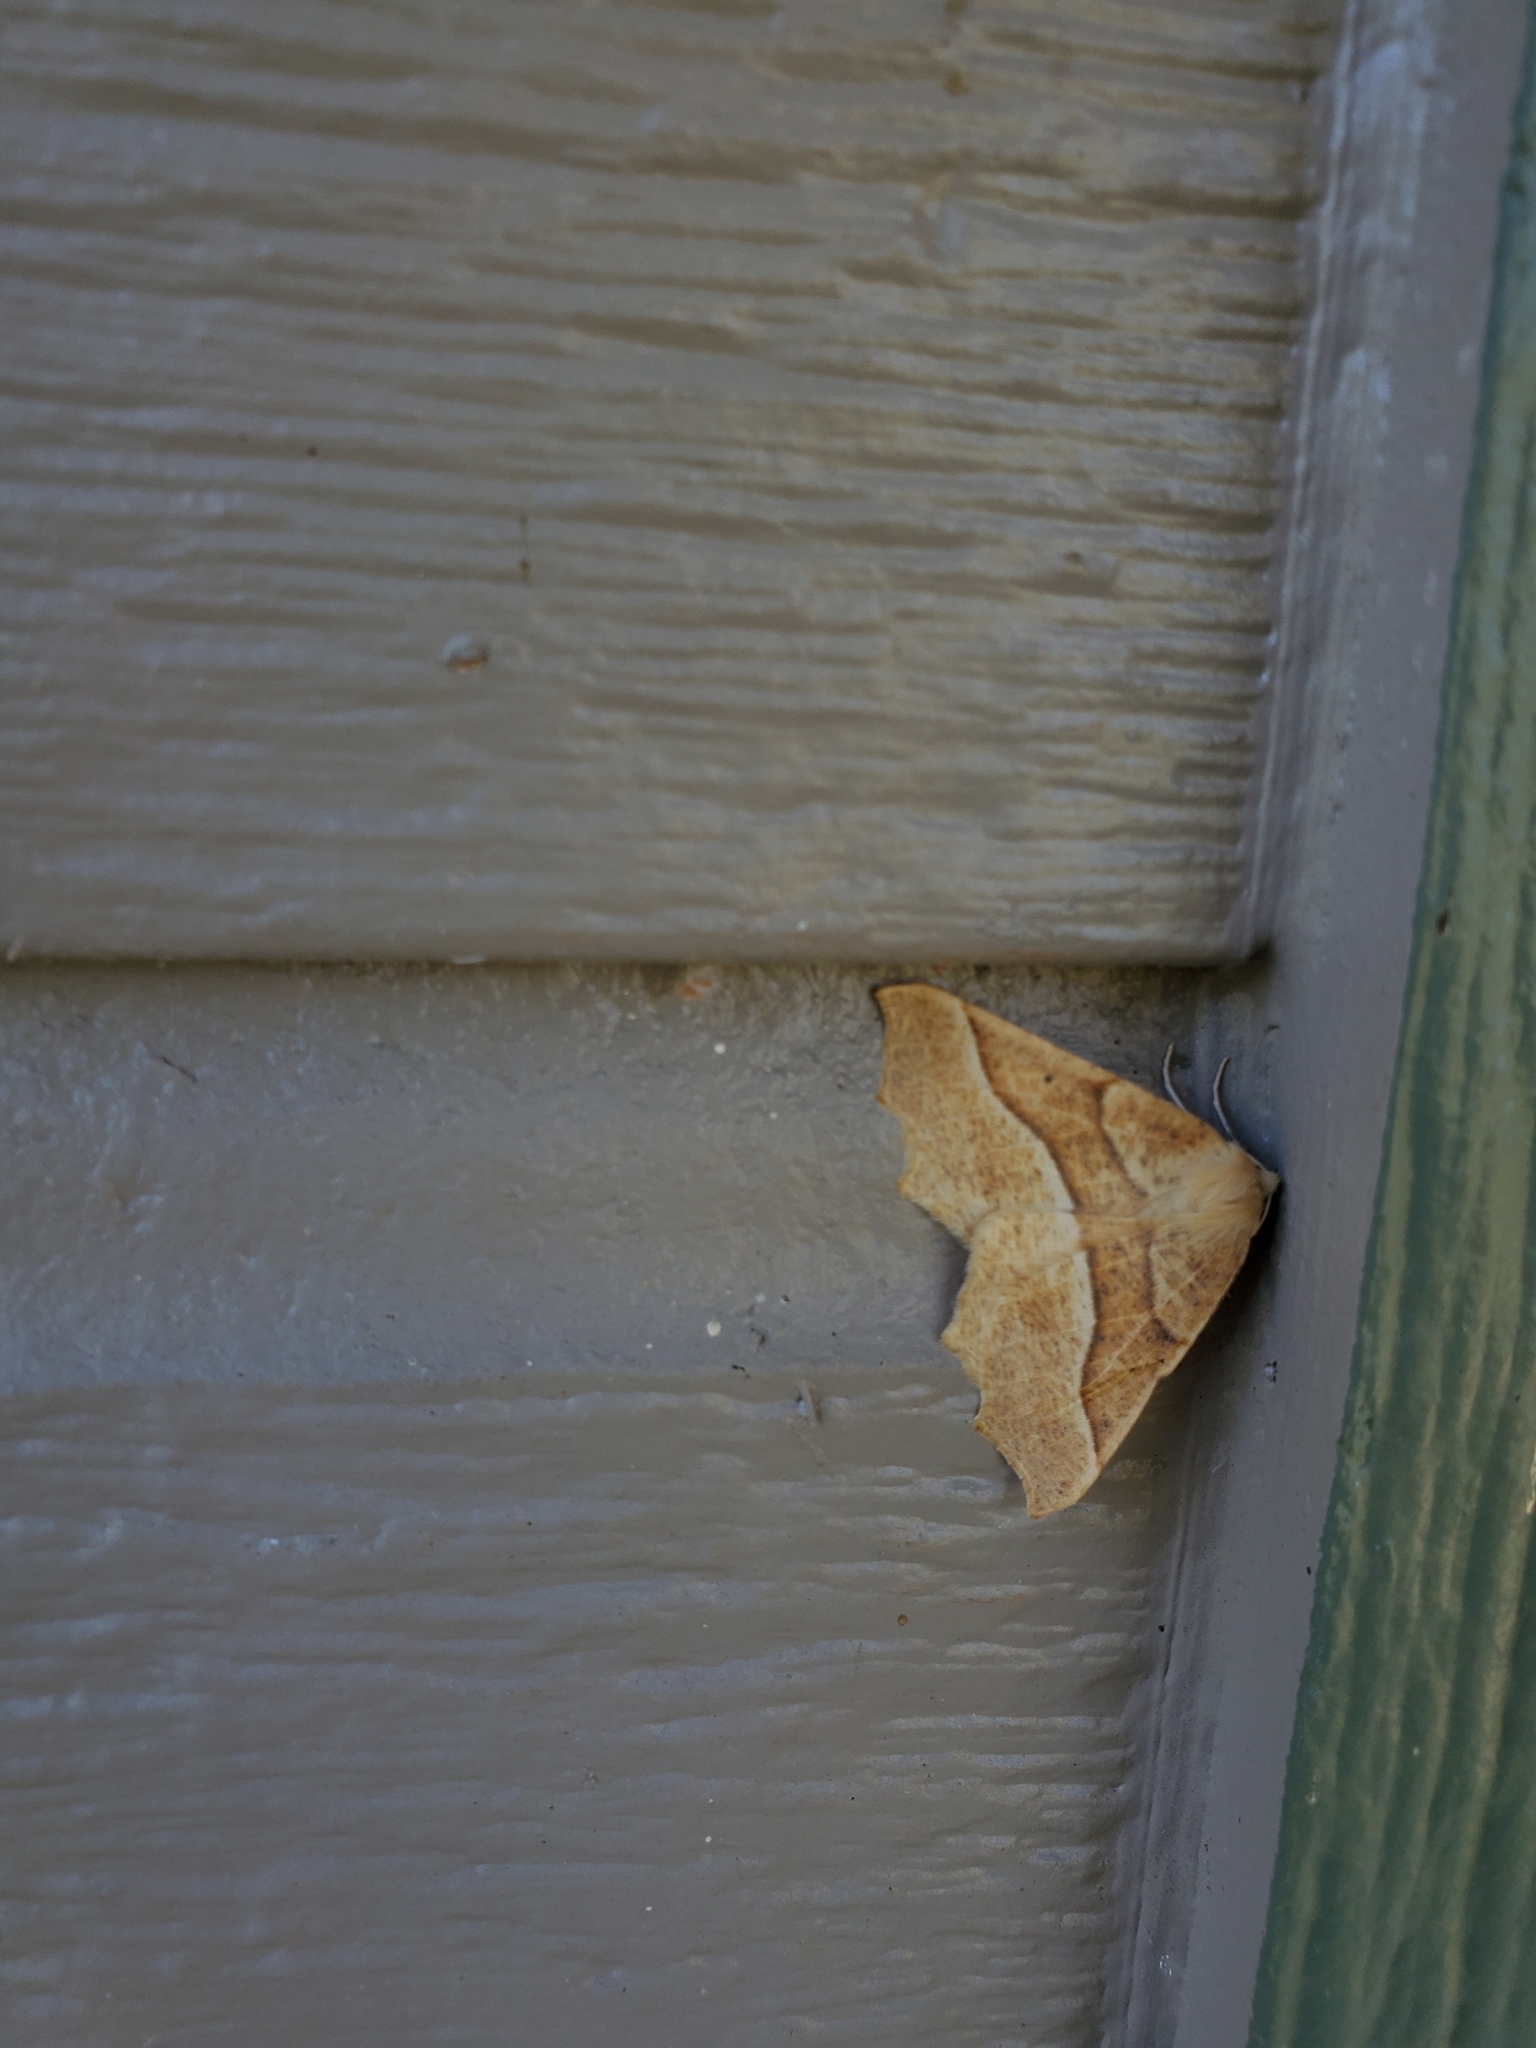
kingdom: Animalia
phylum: Arthropoda
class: Insecta
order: Lepidoptera
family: Geometridae
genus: Synaxis
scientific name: Synaxis jubararia
